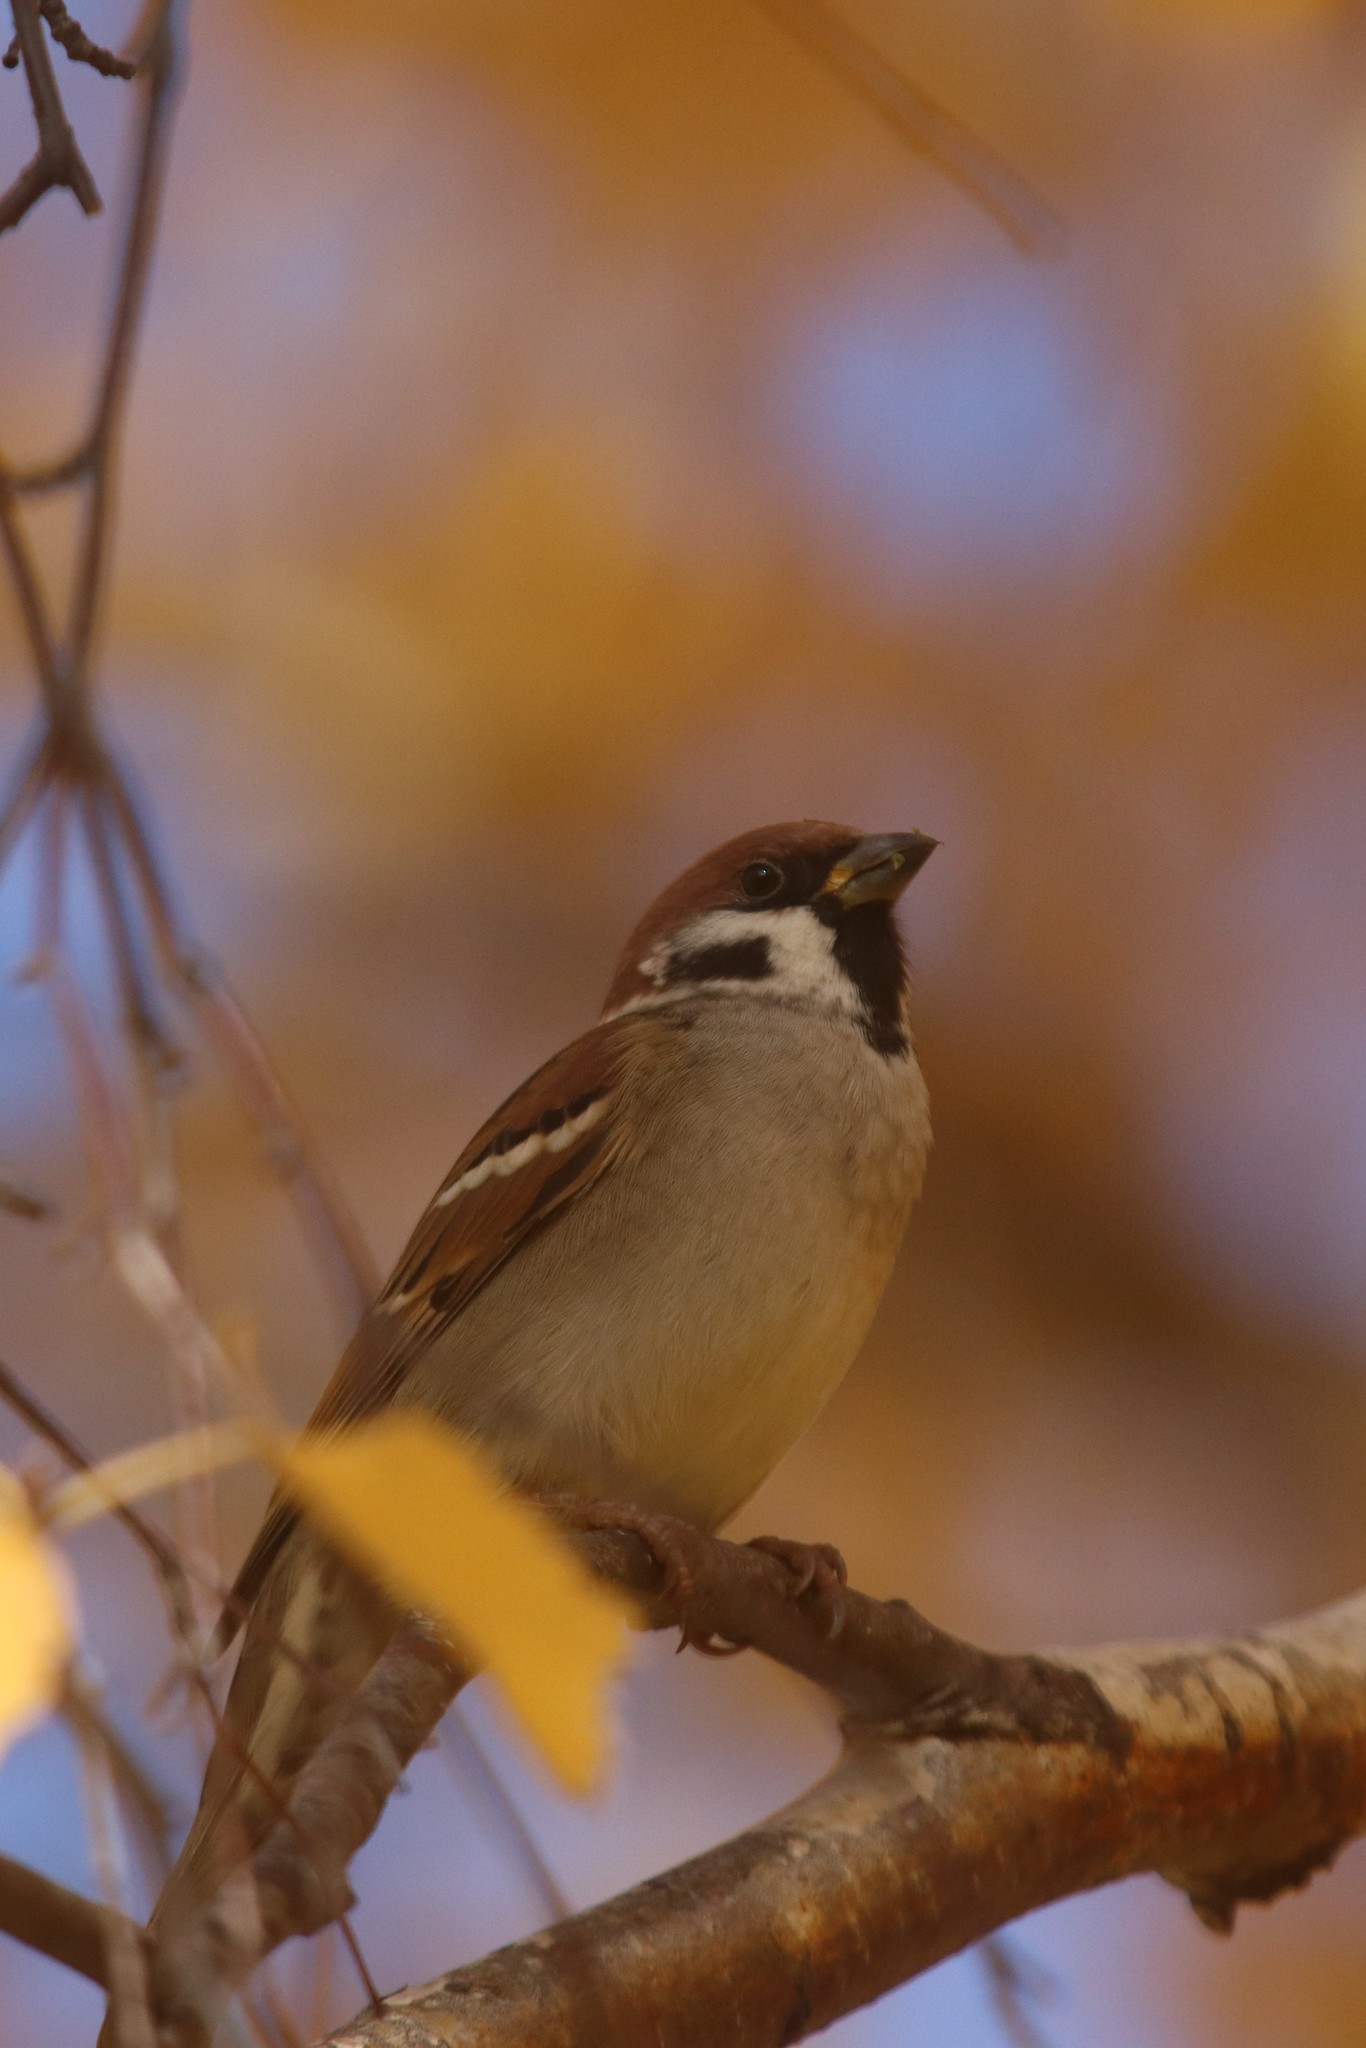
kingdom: Animalia
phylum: Chordata
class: Aves
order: Passeriformes
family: Passeridae
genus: Passer
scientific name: Passer montanus
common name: Eurasian tree sparrow
